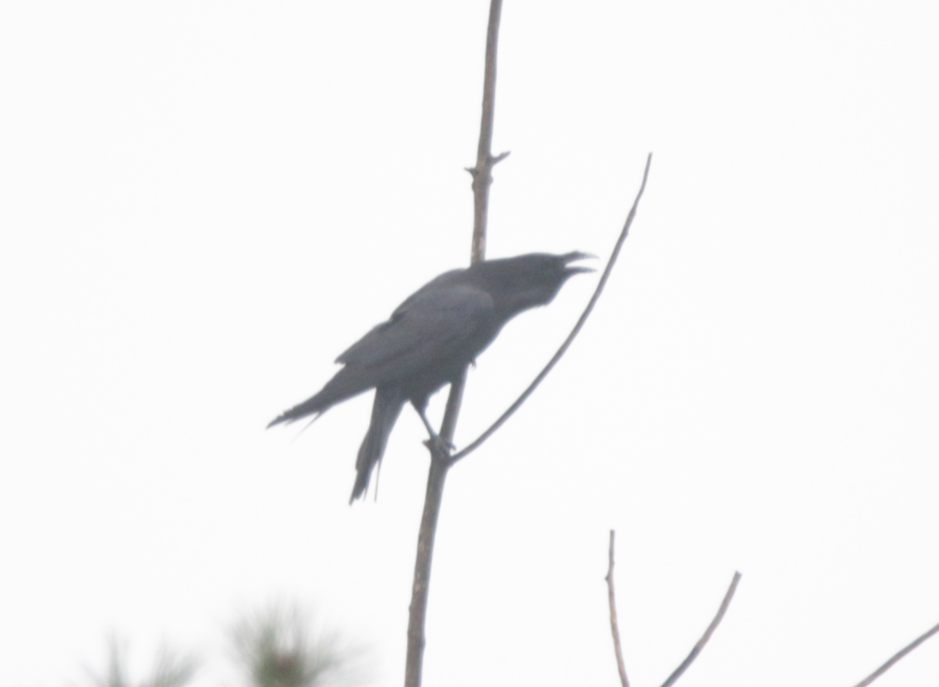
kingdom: Animalia
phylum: Chordata
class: Aves
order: Passeriformes
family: Corvidae
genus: Corvus
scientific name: Corvus corax
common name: Common raven
